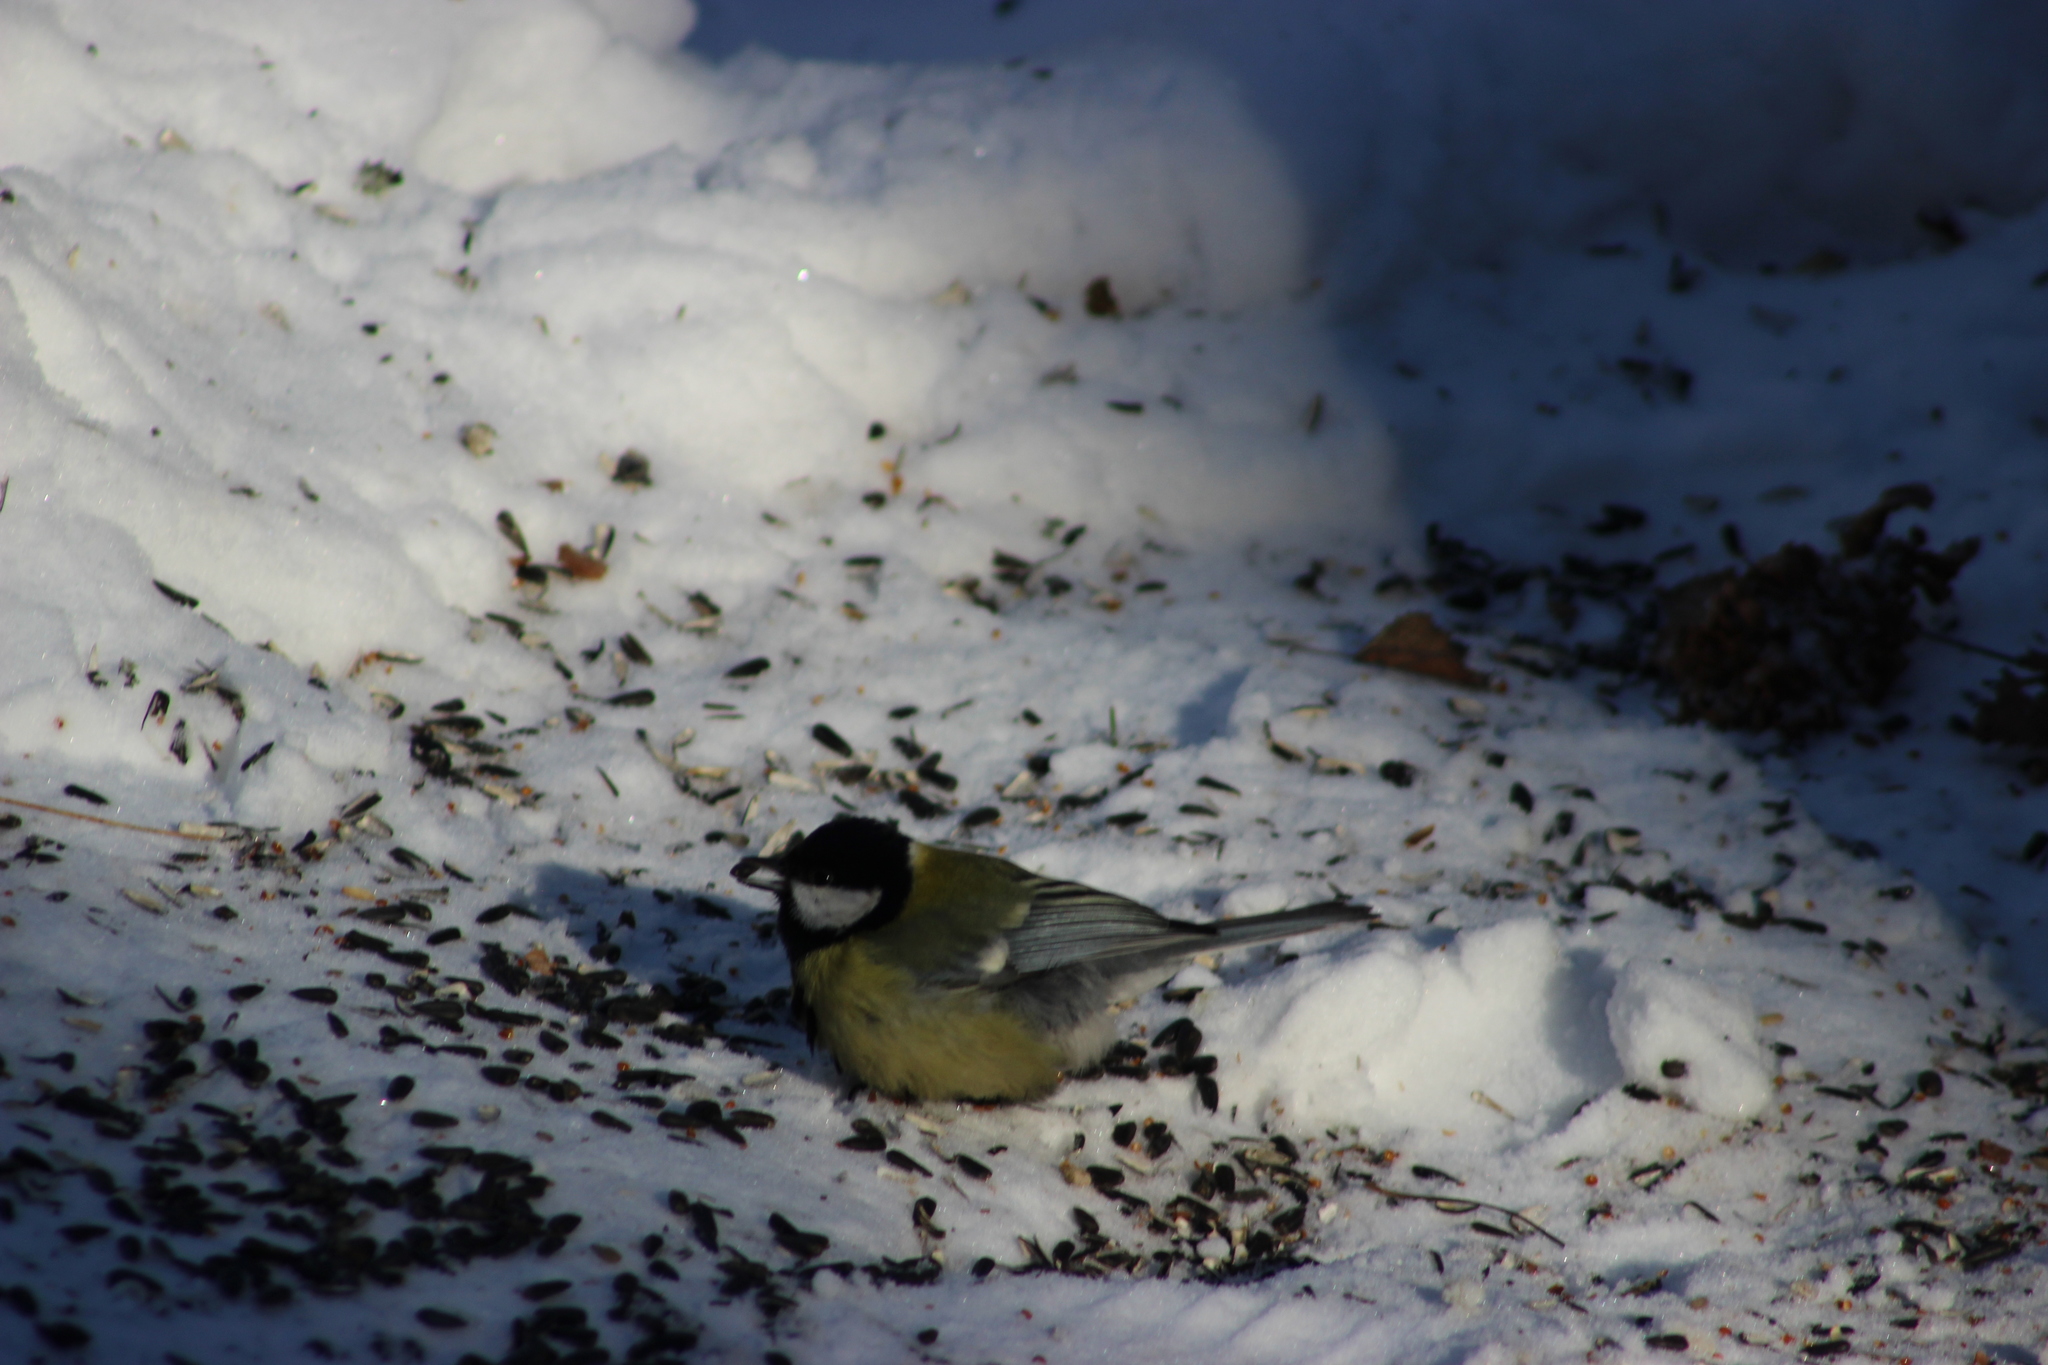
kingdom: Animalia
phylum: Chordata
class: Aves
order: Passeriformes
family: Paridae
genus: Parus
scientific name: Parus major
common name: Great tit
